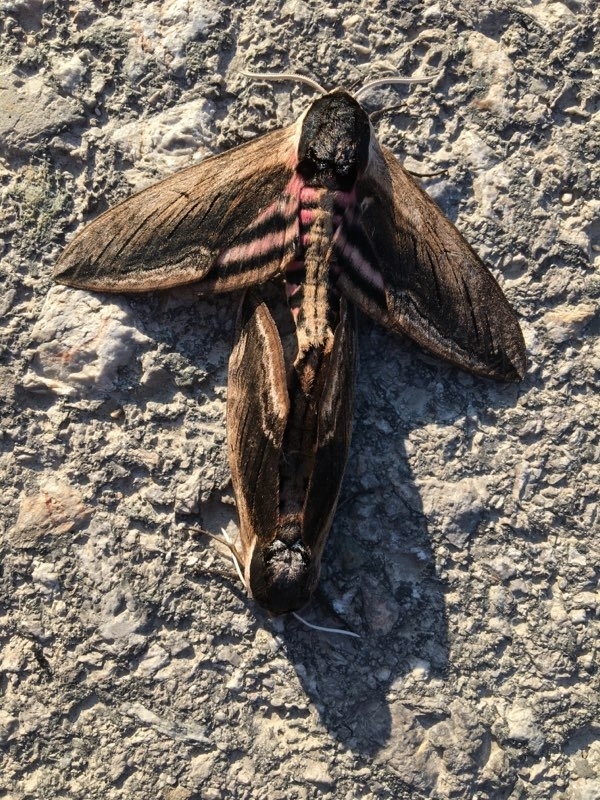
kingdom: Animalia
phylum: Arthropoda
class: Insecta
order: Lepidoptera
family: Sphingidae
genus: Sphinx
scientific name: Sphinx ligustri
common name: Privet hawk-moth
